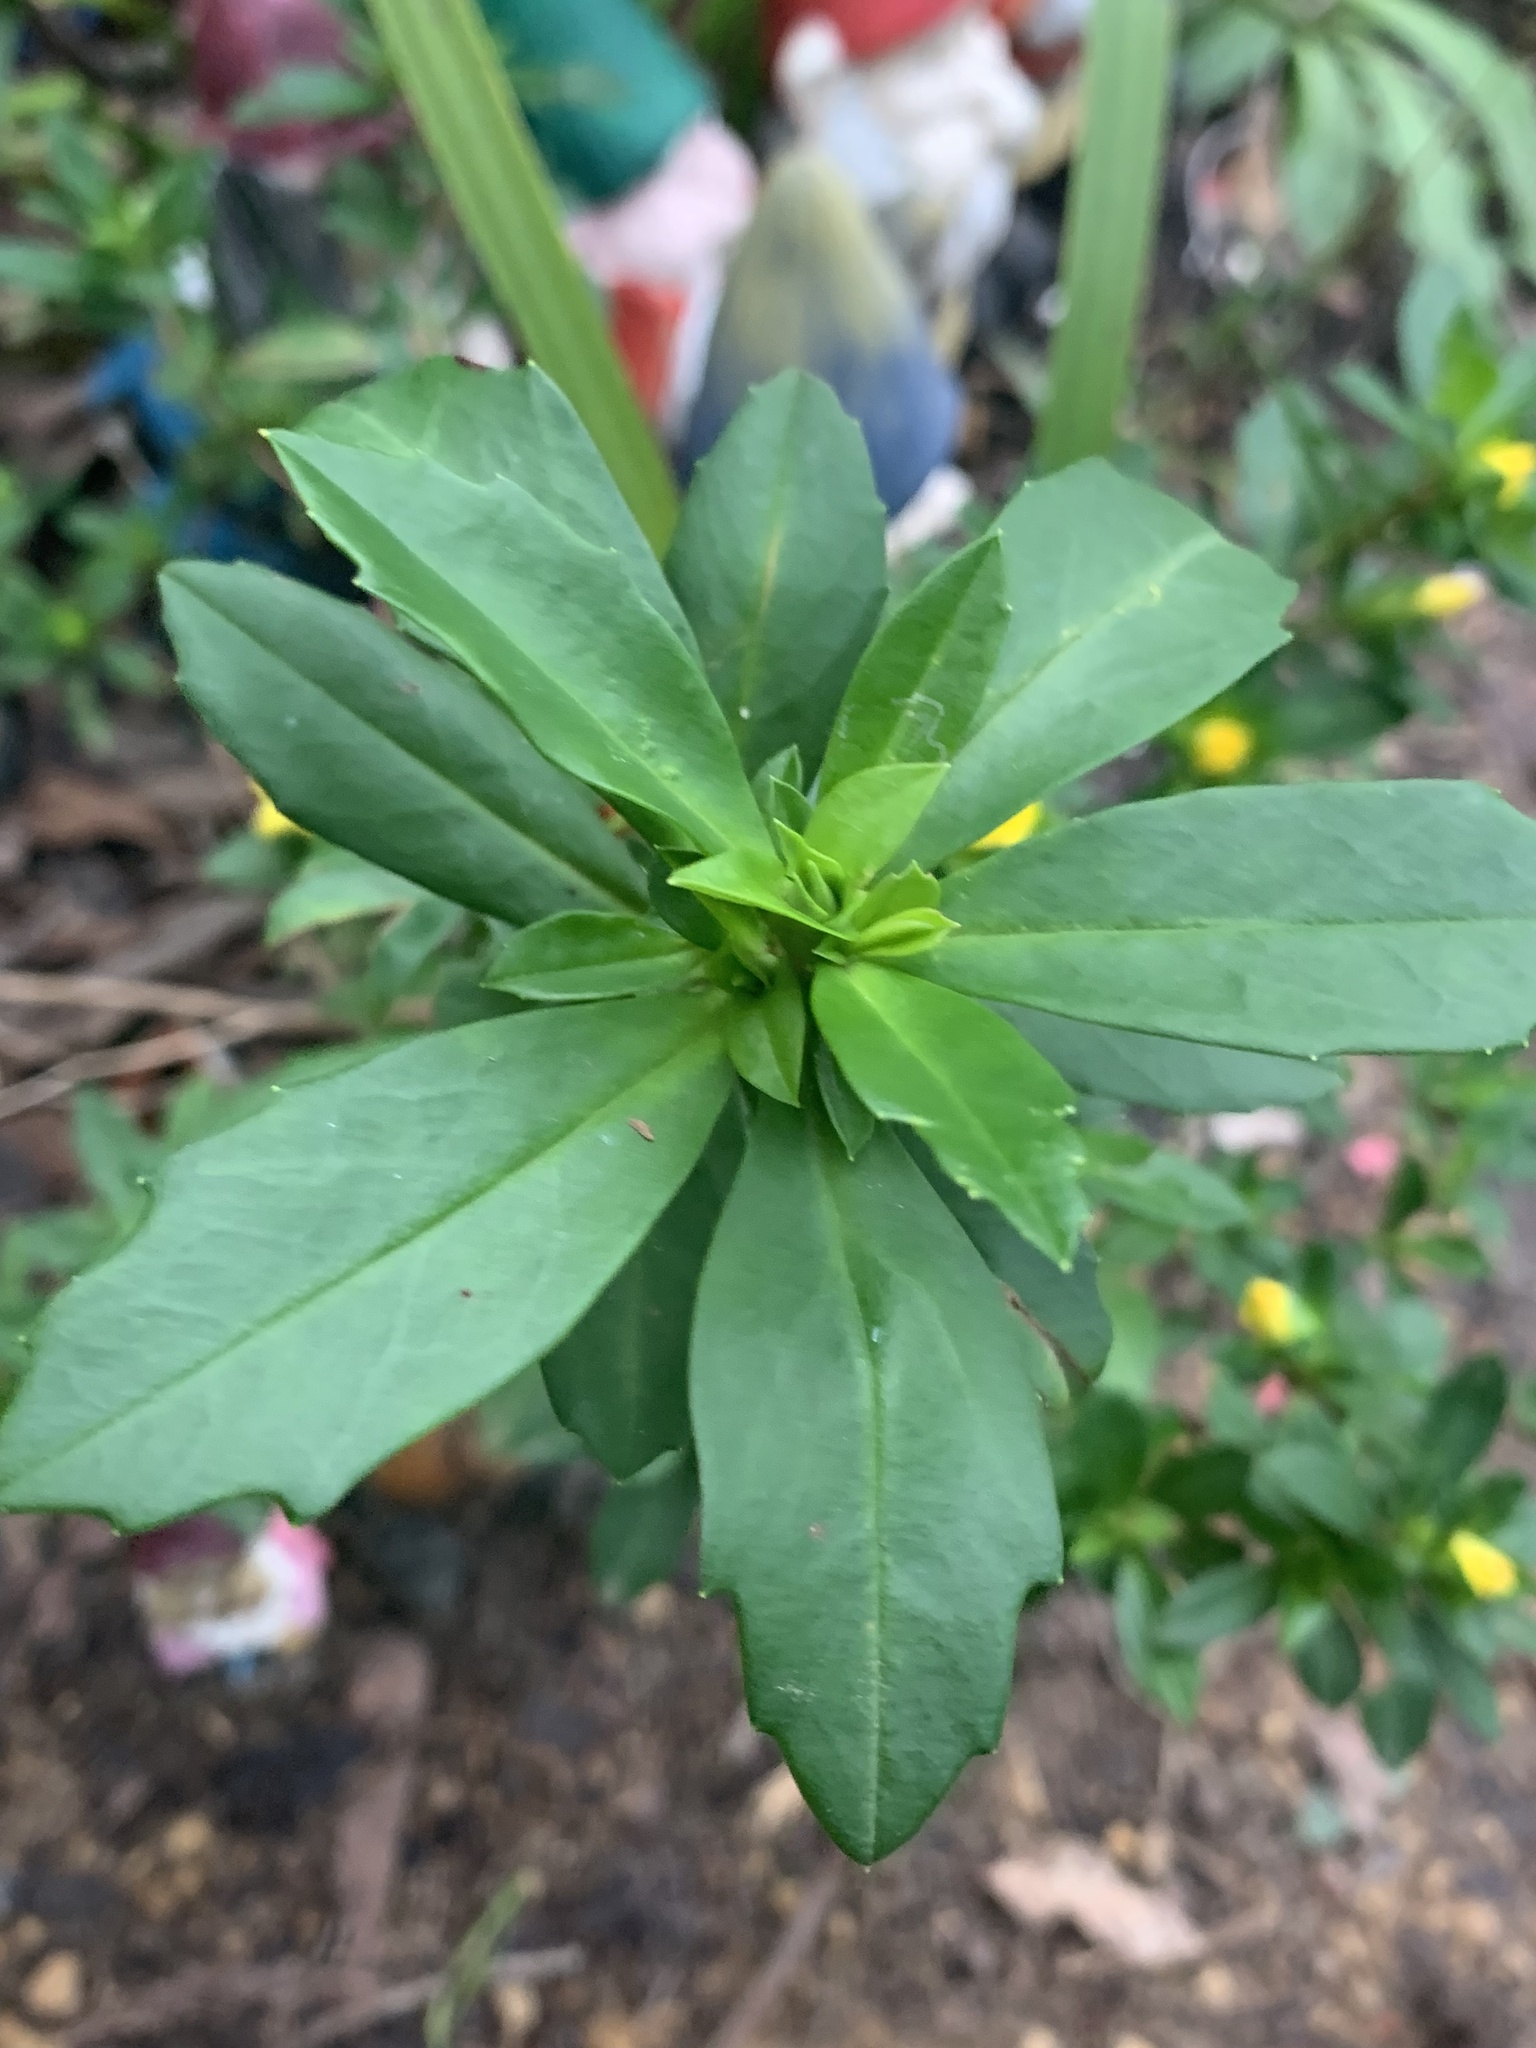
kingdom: Plantae
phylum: Tracheophyta
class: Magnoliopsida
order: Dilleniales
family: Dilleniaceae
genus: Hibbertia
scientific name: Hibbertia cuneiformis
